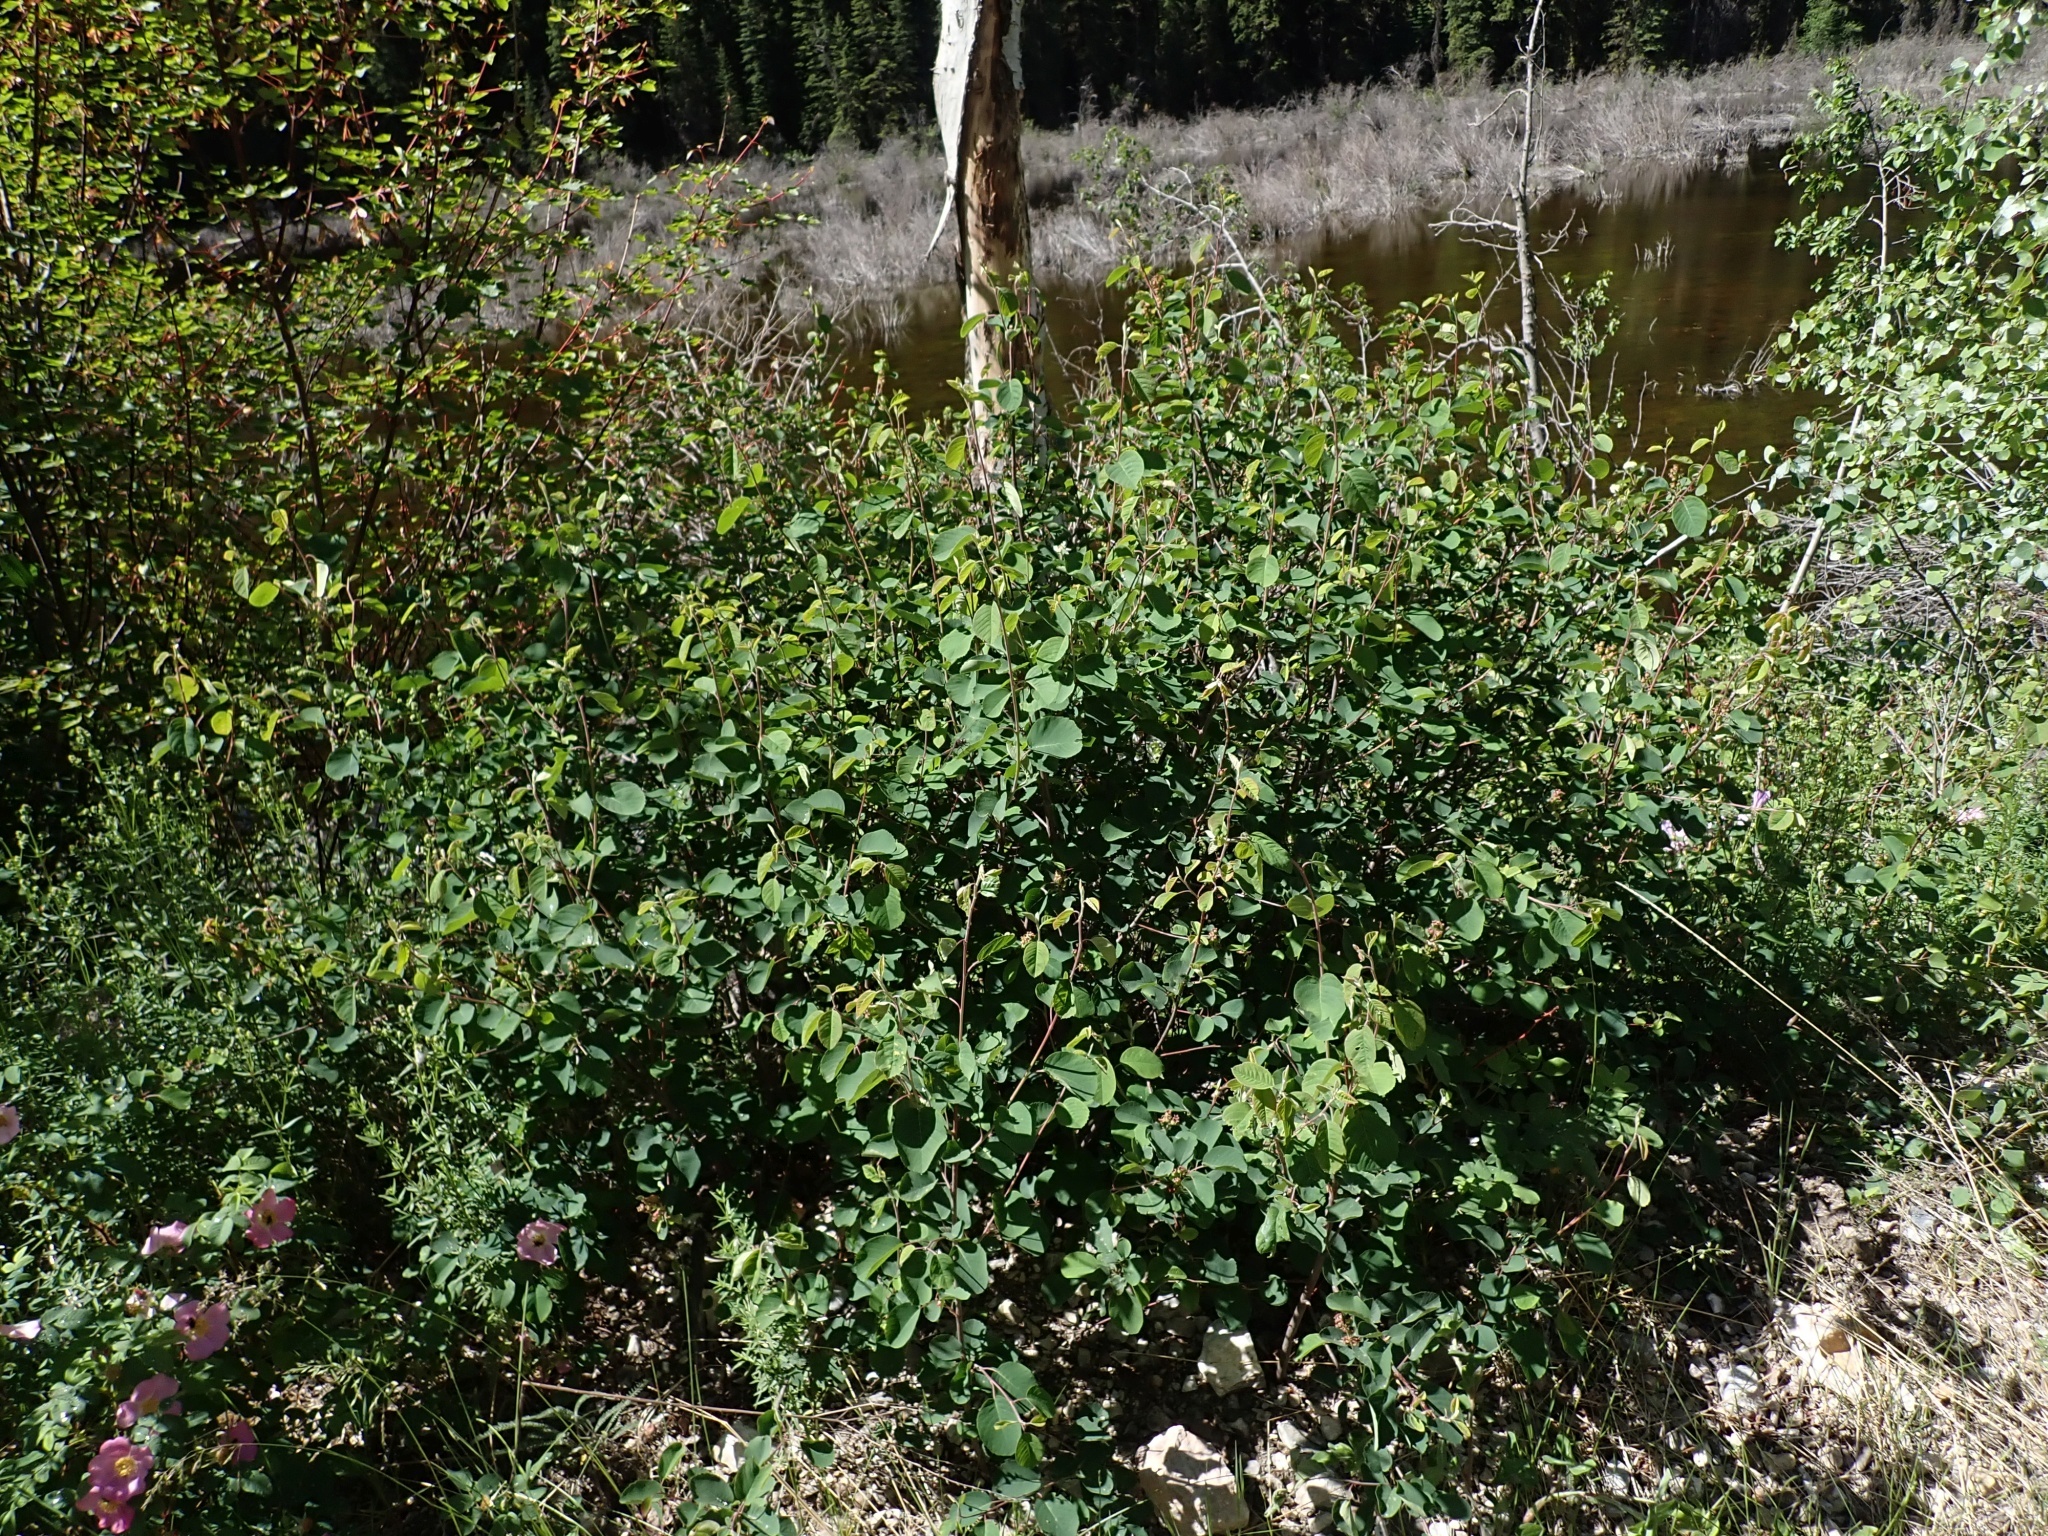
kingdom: Plantae
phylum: Tracheophyta
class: Magnoliopsida
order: Rosales
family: Rosaceae
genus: Amelanchier
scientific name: Amelanchier alnifolia
